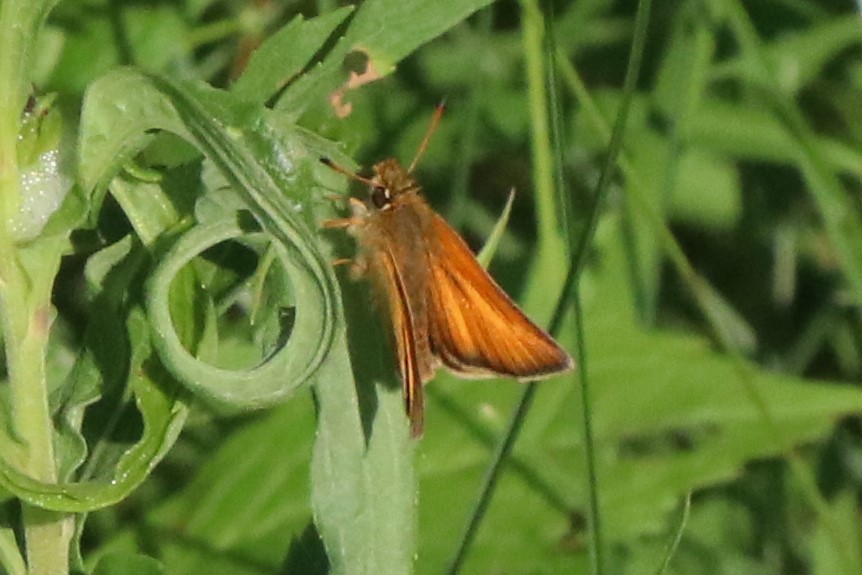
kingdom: Animalia
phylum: Arthropoda
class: Insecta
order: Lepidoptera
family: Hesperiidae
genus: Thymelicus
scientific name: Thymelicus lineola
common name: Essex skipper
